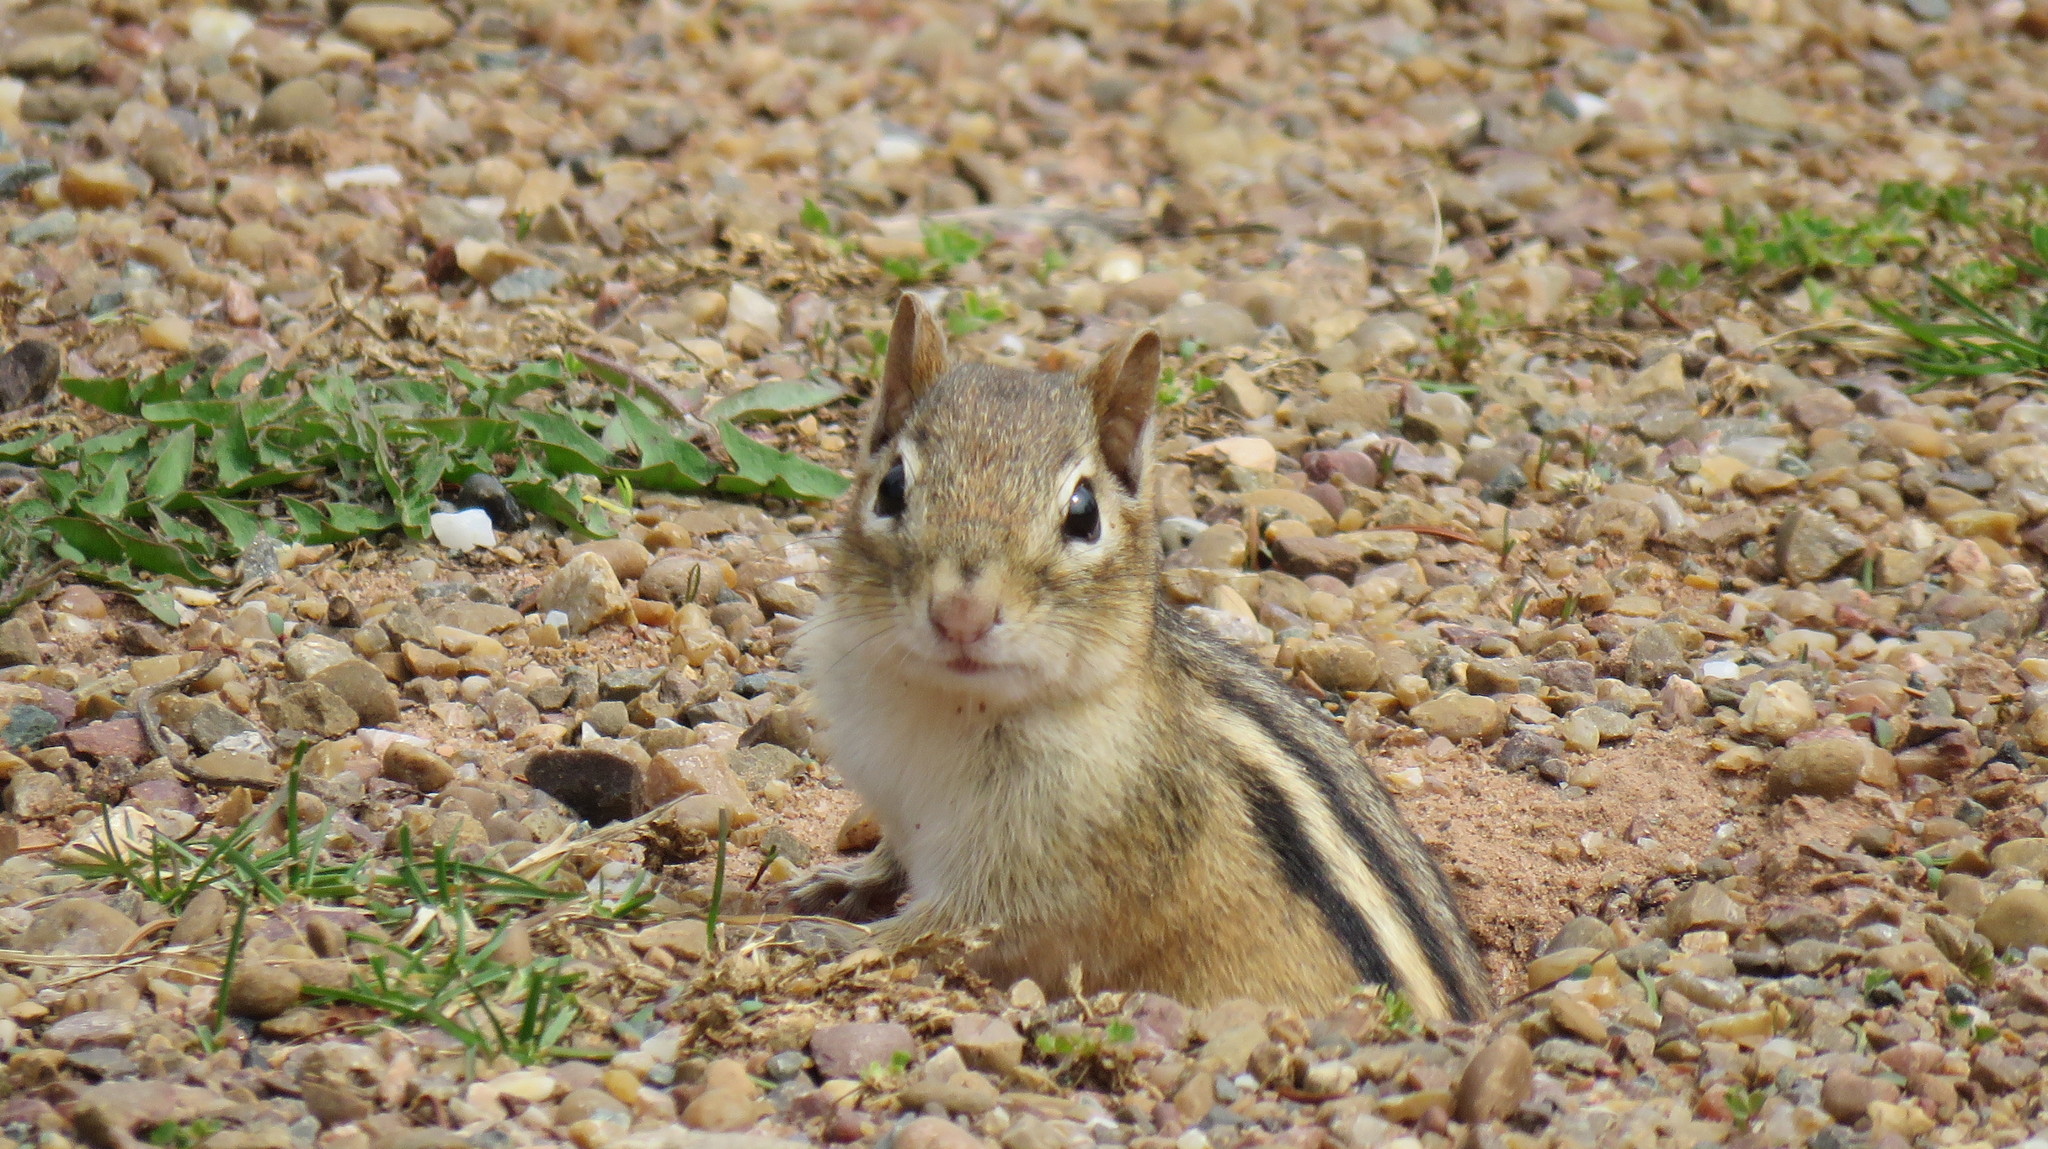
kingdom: Animalia
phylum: Chordata
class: Mammalia
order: Rodentia
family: Sciuridae
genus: Tamias
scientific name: Tamias striatus
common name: Eastern chipmunk
